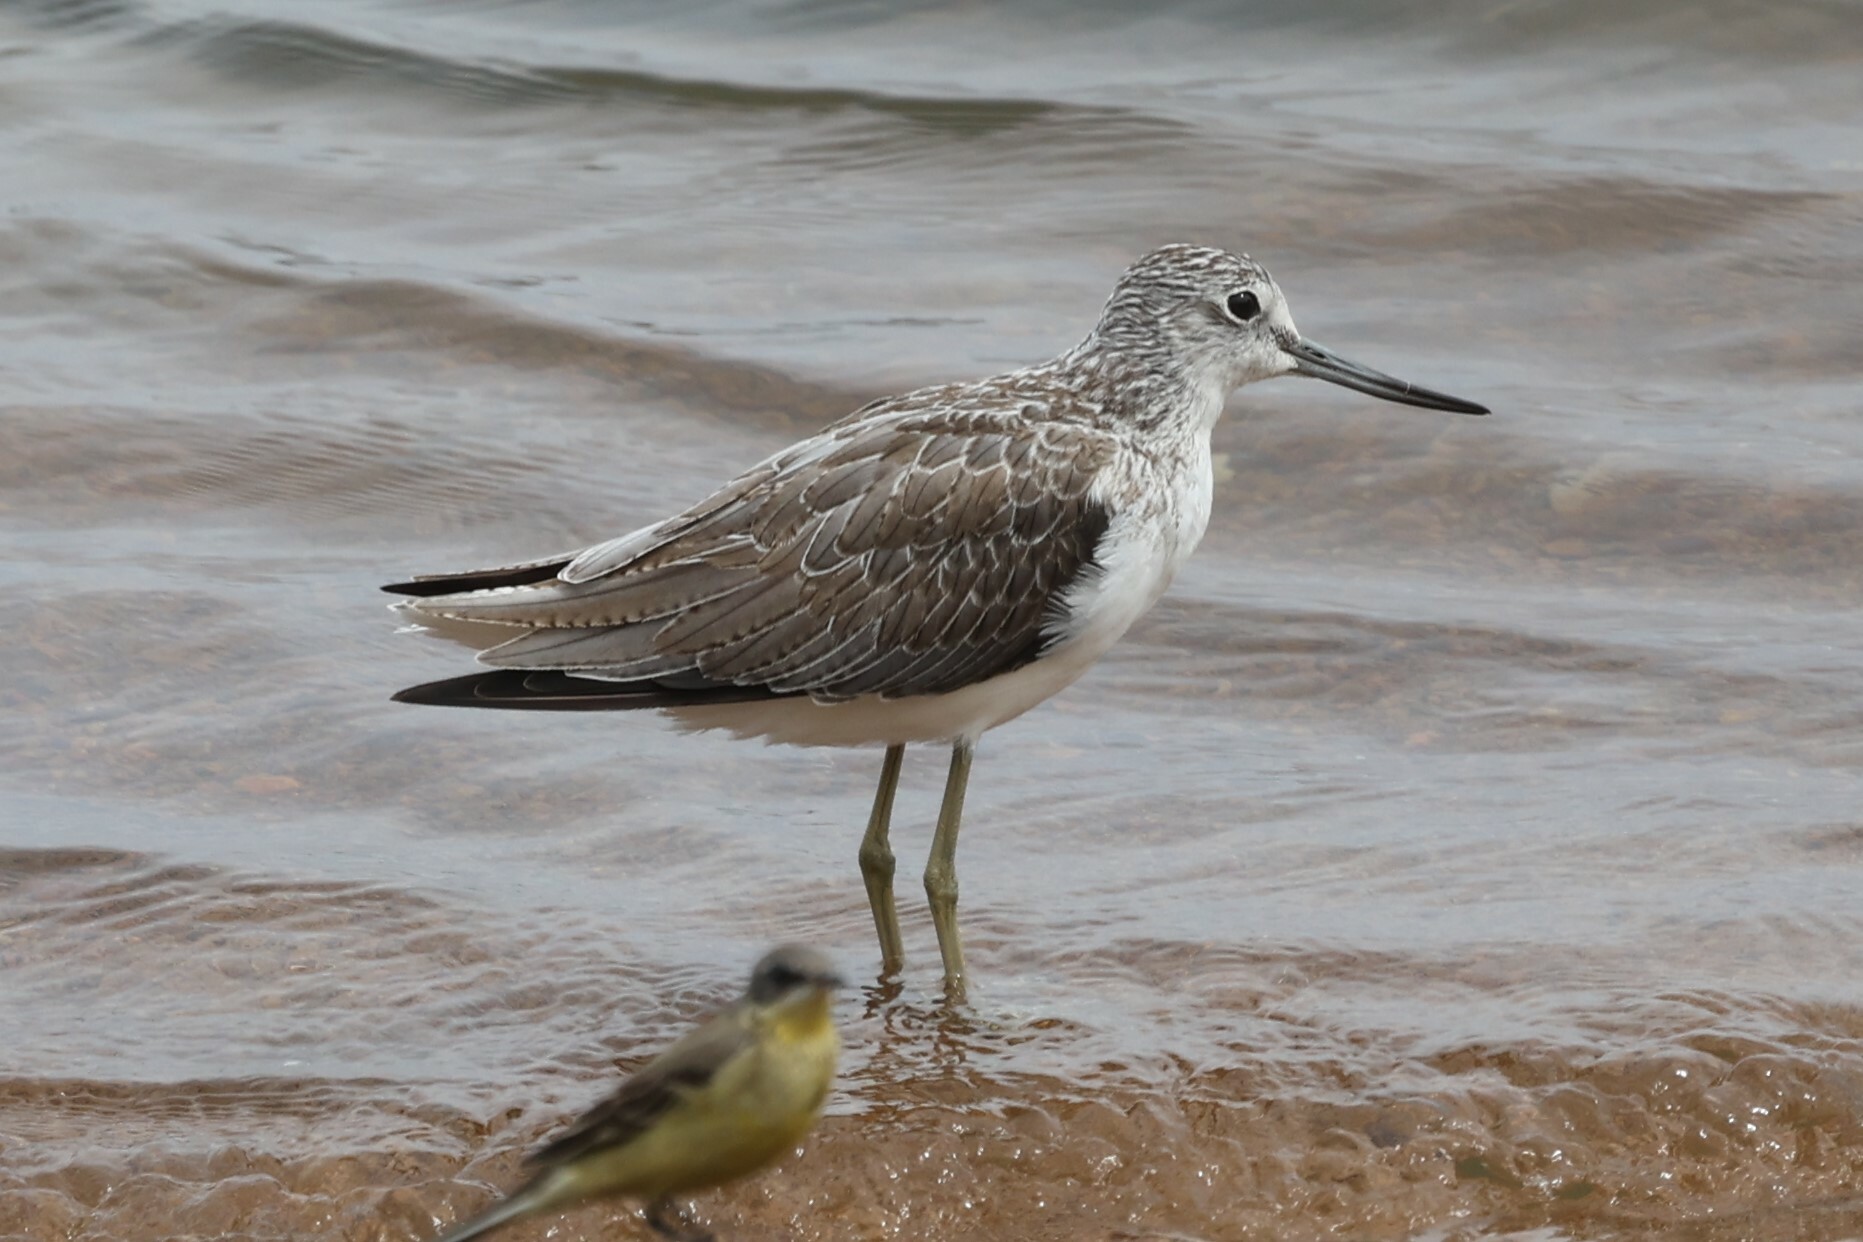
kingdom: Animalia
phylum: Chordata
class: Aves
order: Charadriiformes
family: Scolopacidae
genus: Tringa
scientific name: Tringa nebularia
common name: Common greenshank
